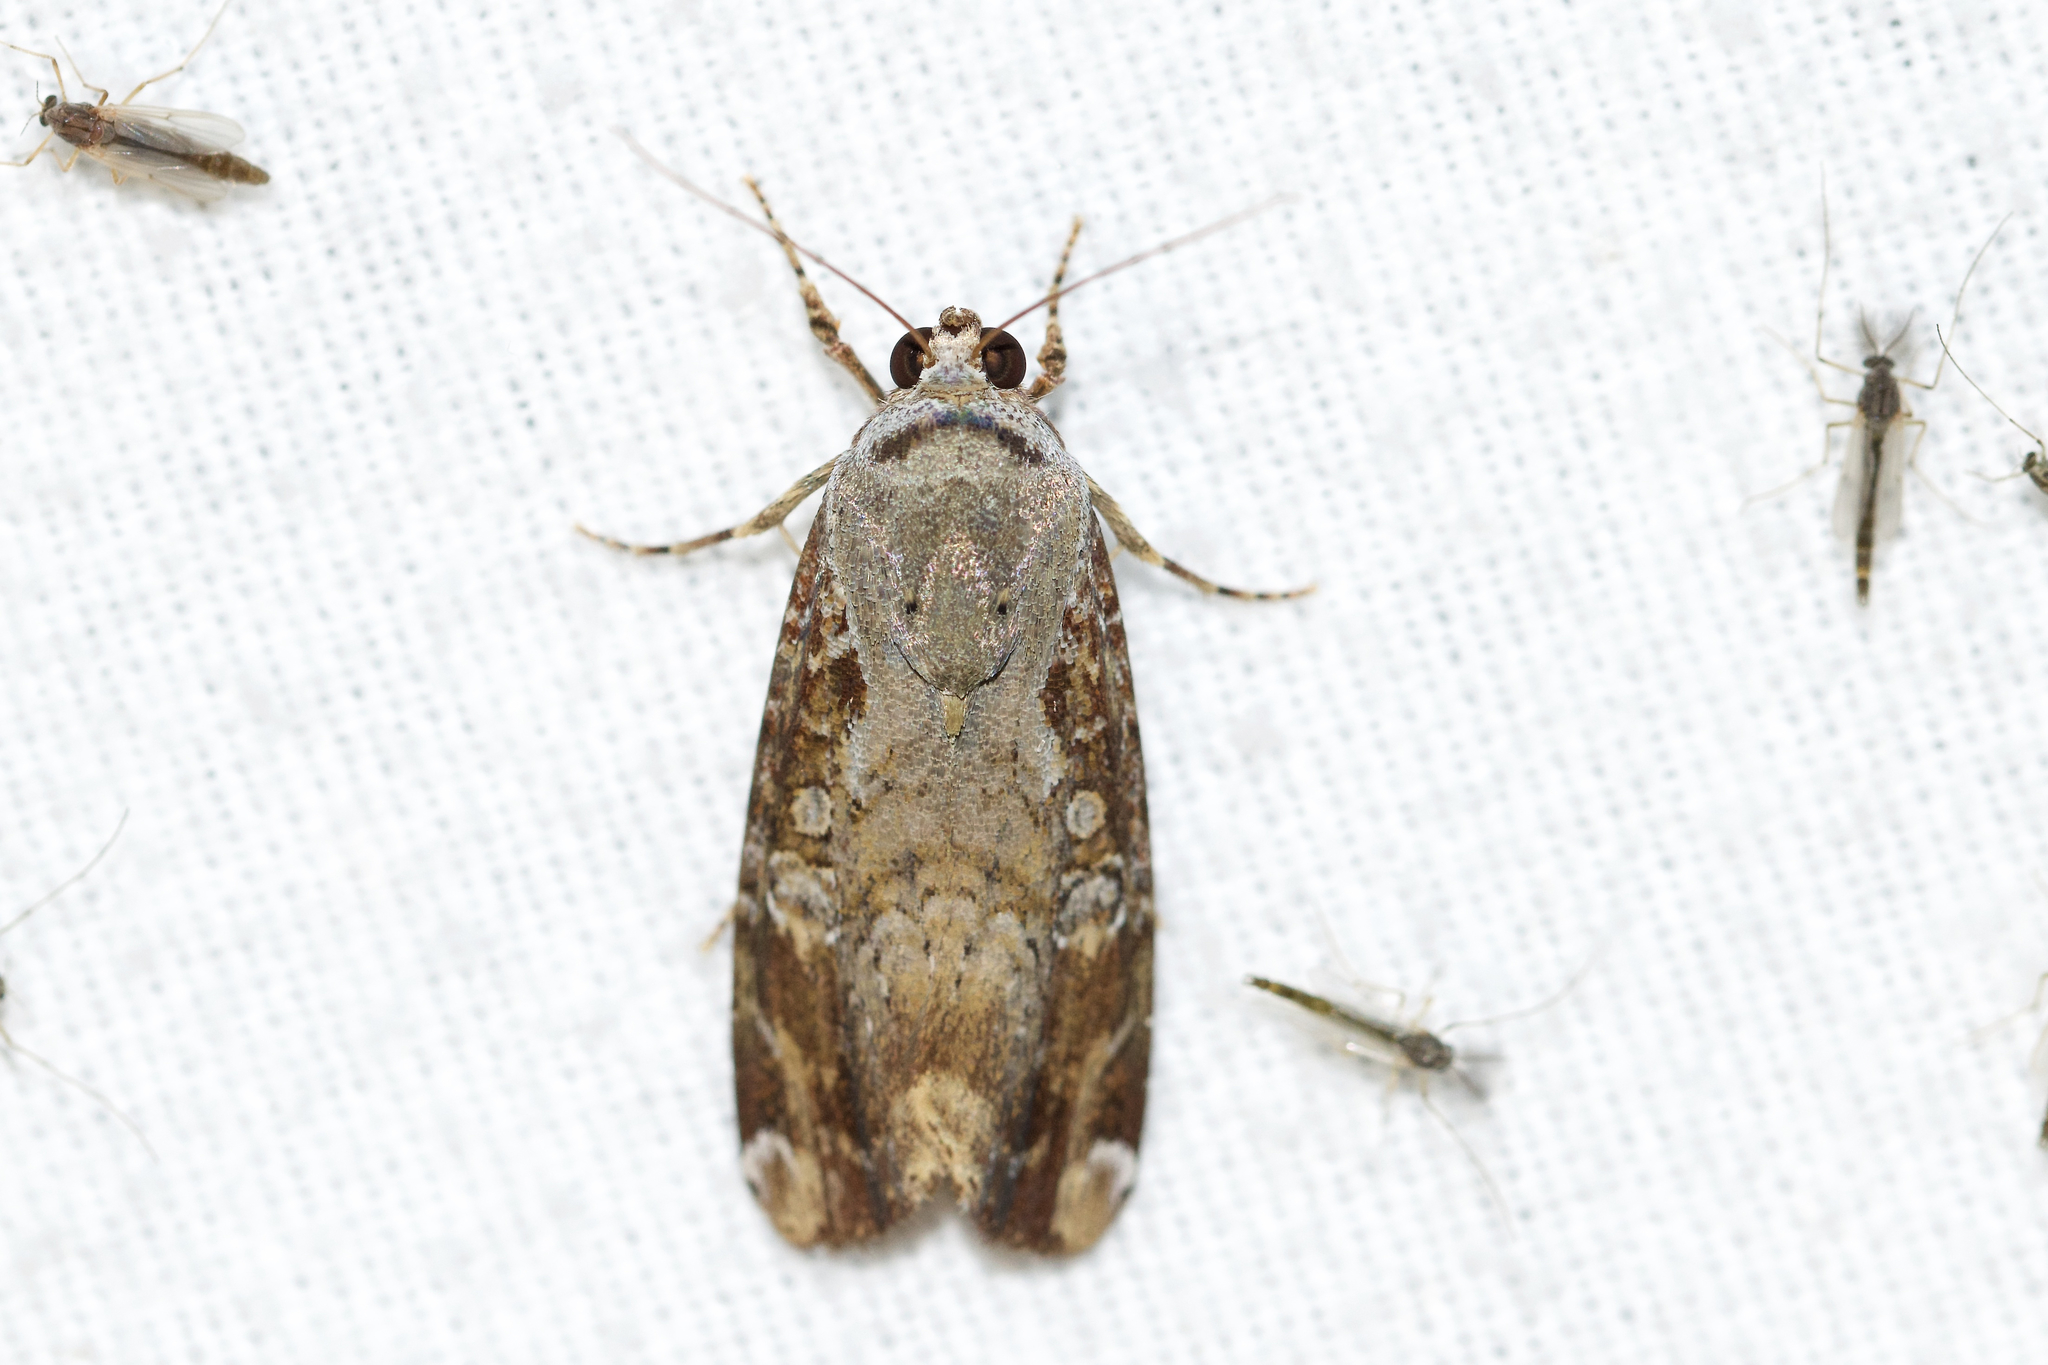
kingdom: Animalia
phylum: Arthropoda
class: Insecta
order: Lepidoptera
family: Noctuidae
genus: Magusa
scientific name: Magusa divaricata
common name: Orb narrow-winged moth
